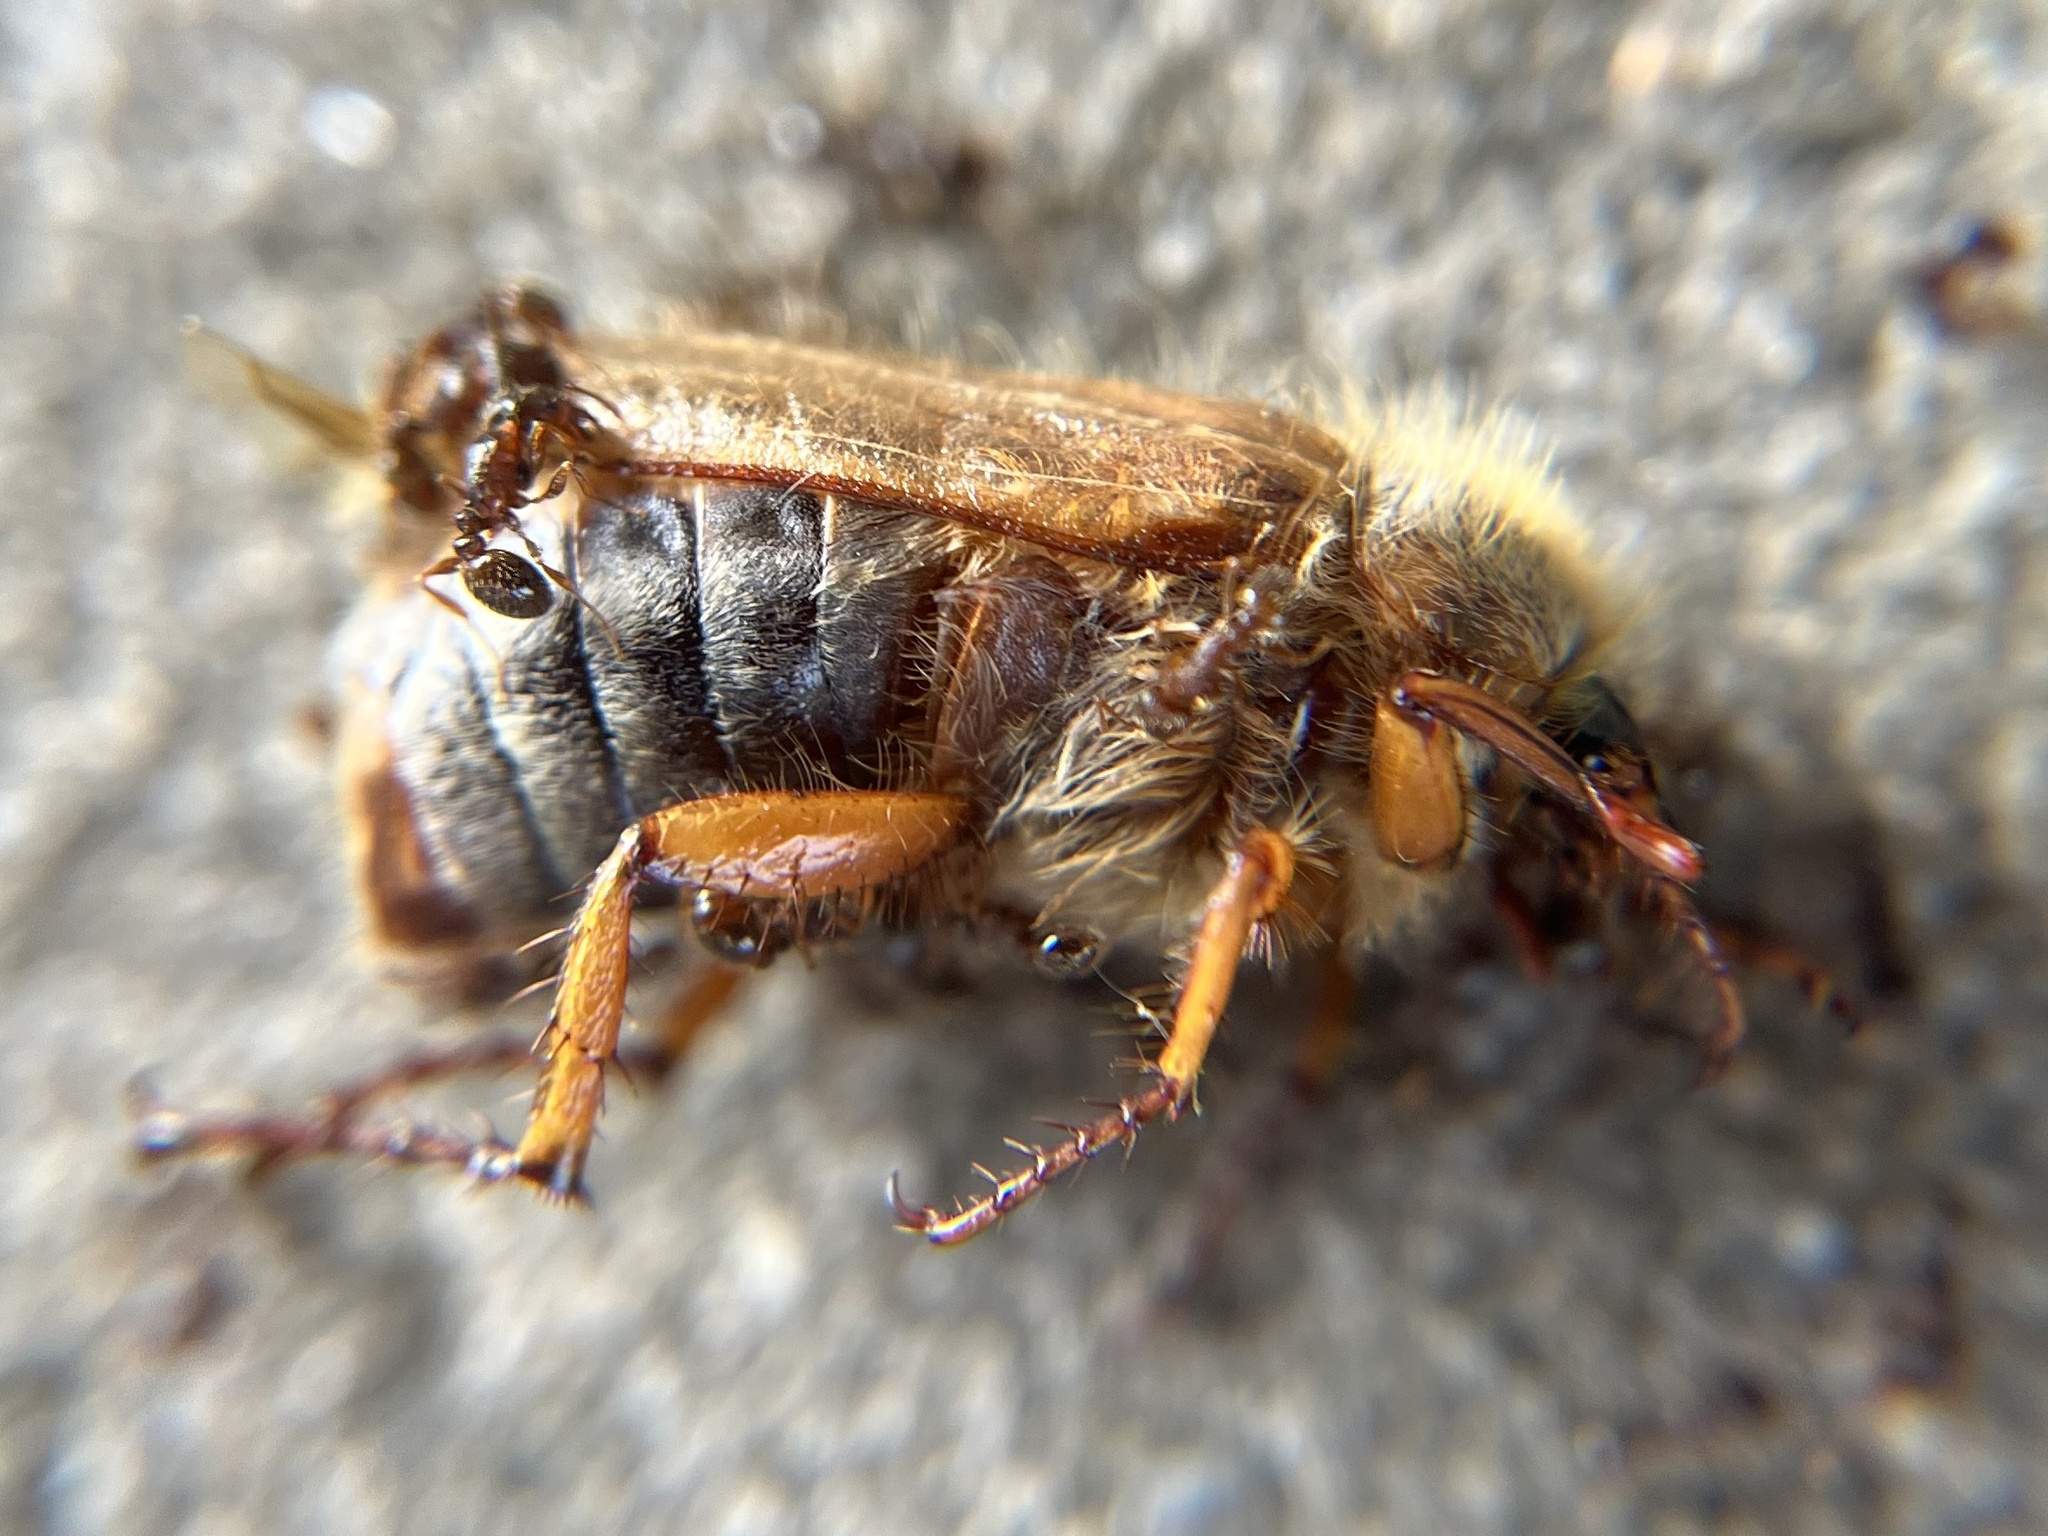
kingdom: Animalia
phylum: Arthropoda
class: Insecta
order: Coleoptera
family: Scarabaeidae
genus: Amphimallon
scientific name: Amphimallon solstitiale
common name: Summer chafer
